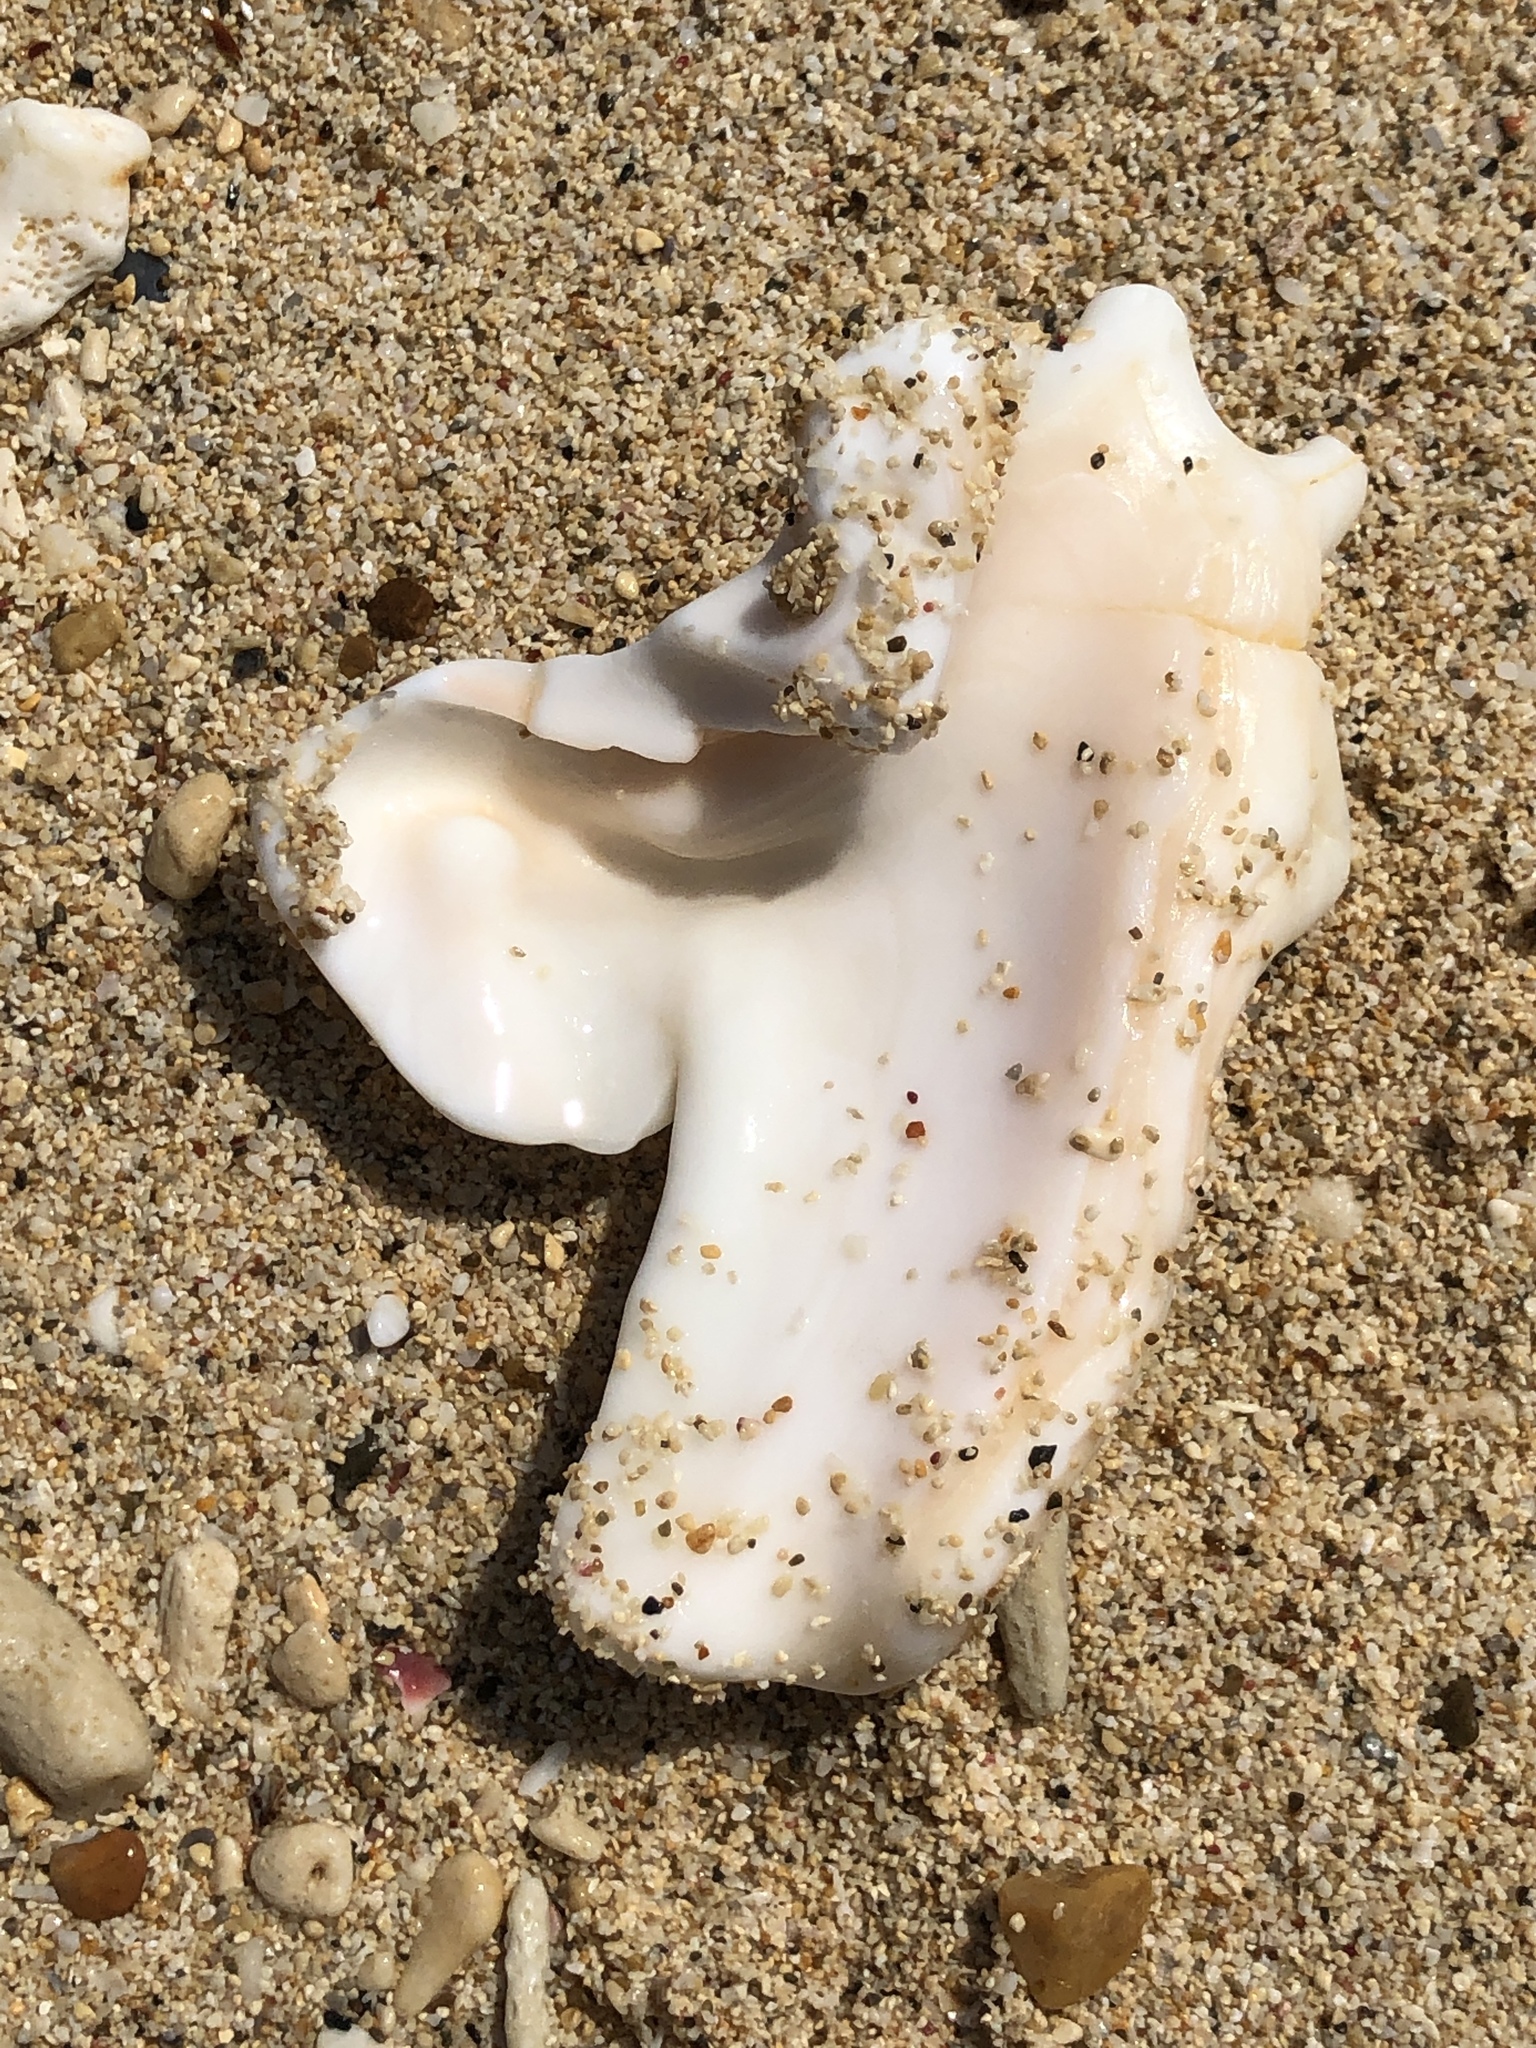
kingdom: Animalia
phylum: Mollusca
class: Gastropoda
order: Littorinimorpha
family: Strombidae
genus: Lambis
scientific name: Lambis lambis
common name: Common spider conch
